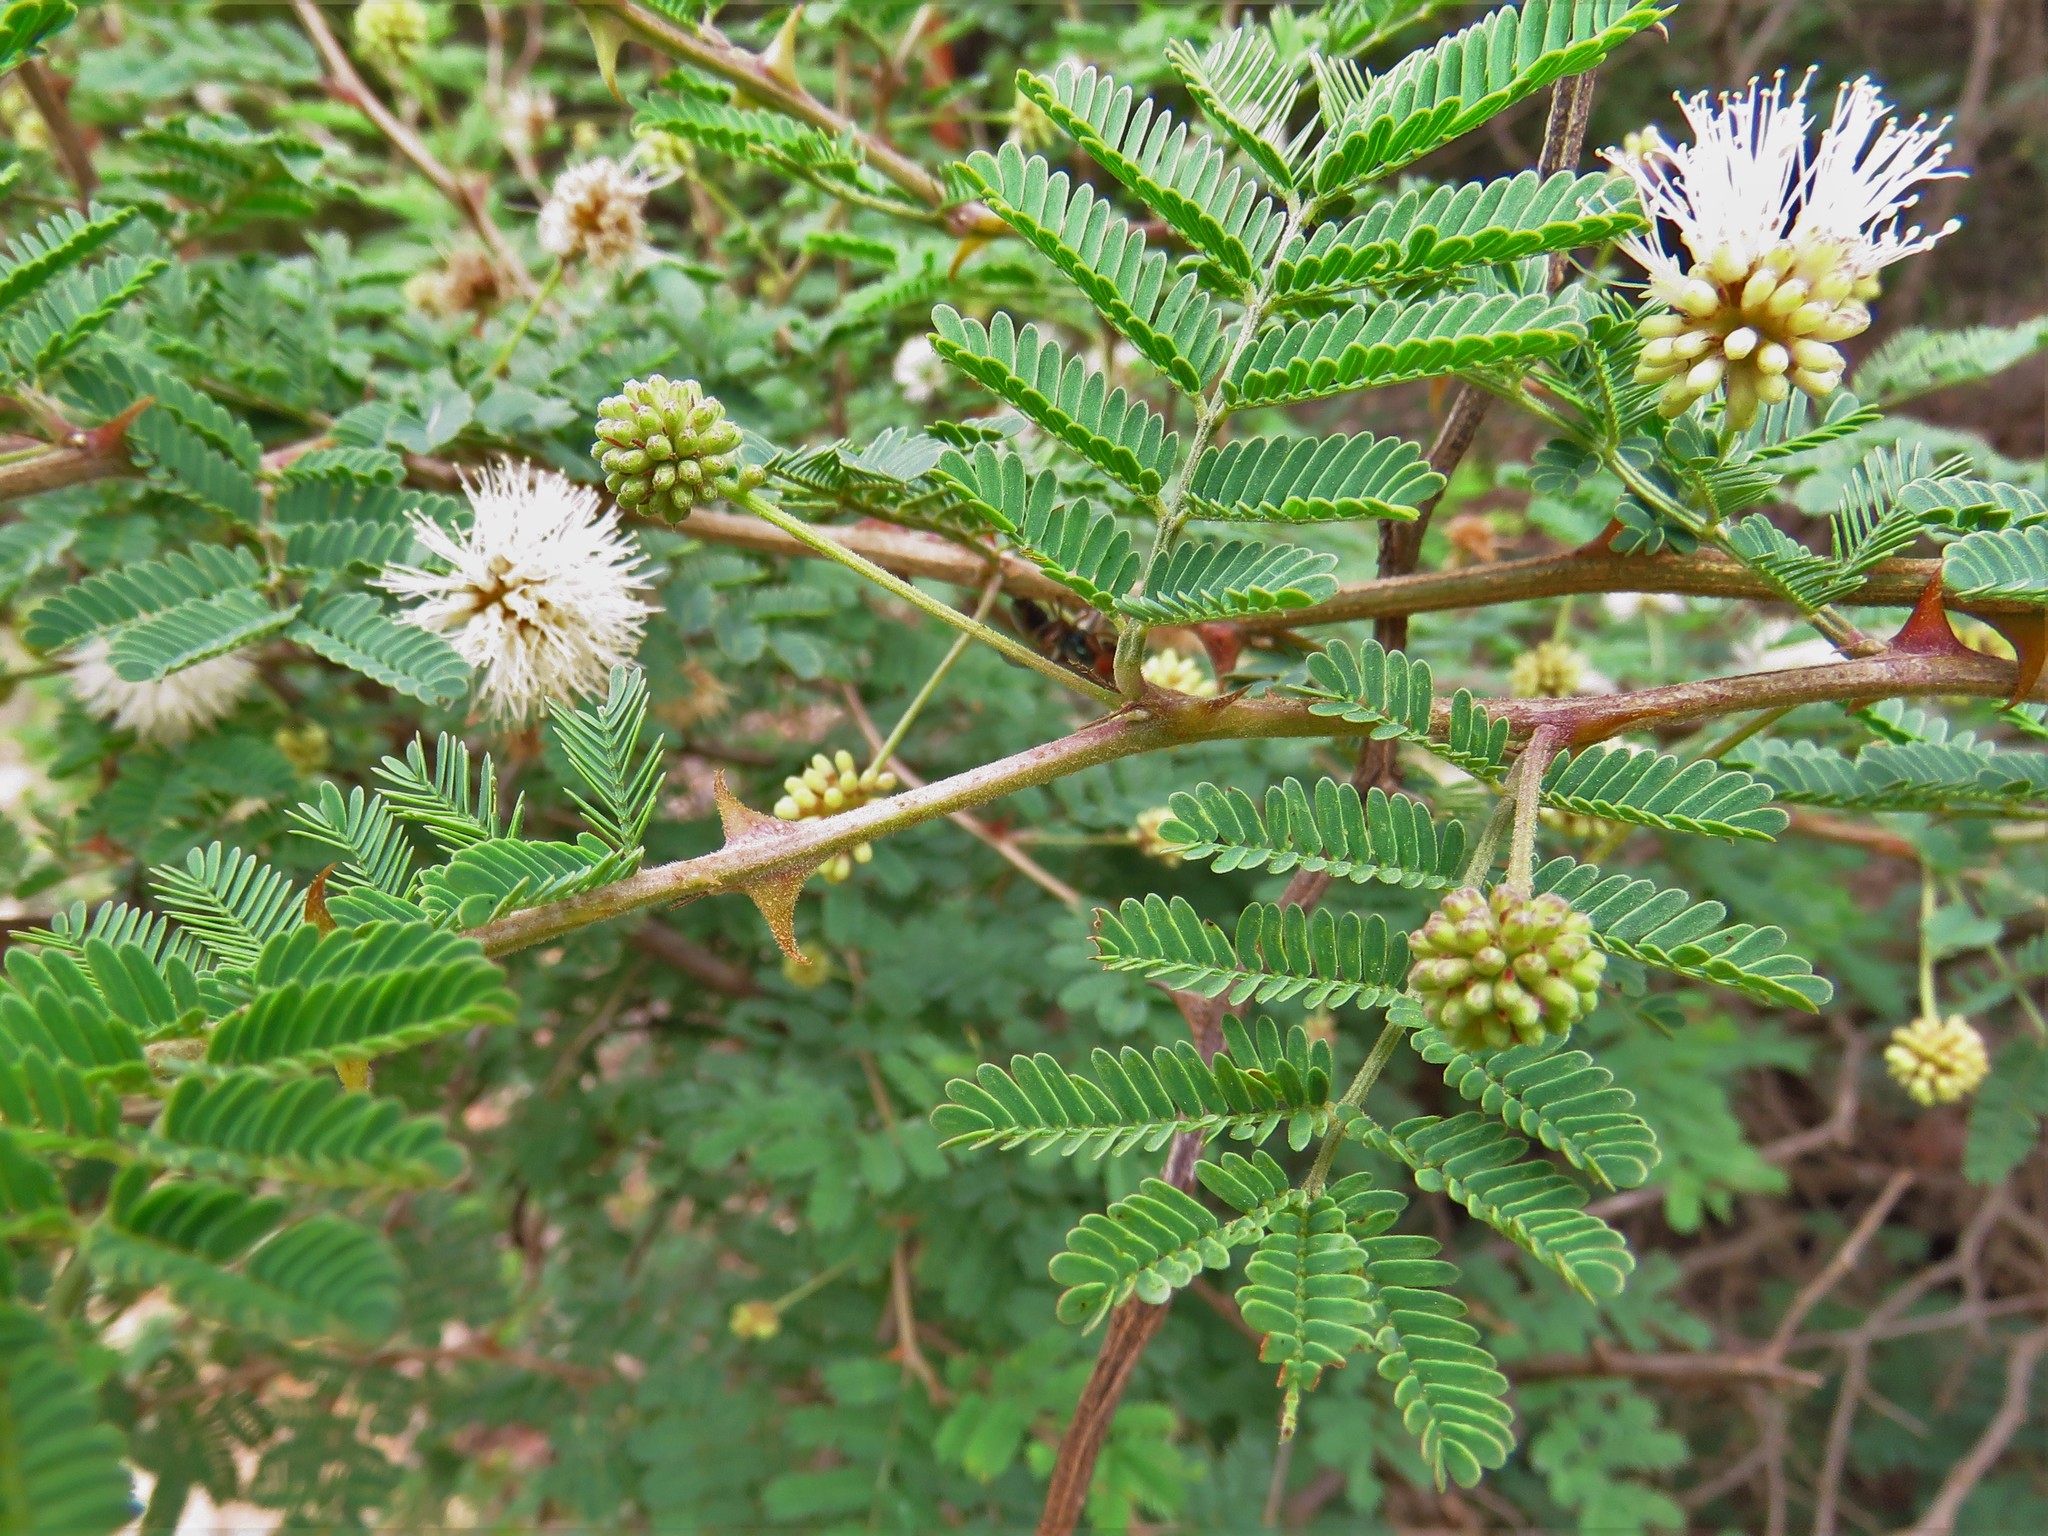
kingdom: Plantae
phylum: Tracheophyta
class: Magnoliopsida
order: Fabales
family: Fabaceae
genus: Mimosa
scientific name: Mimosa aculeaticarpa
